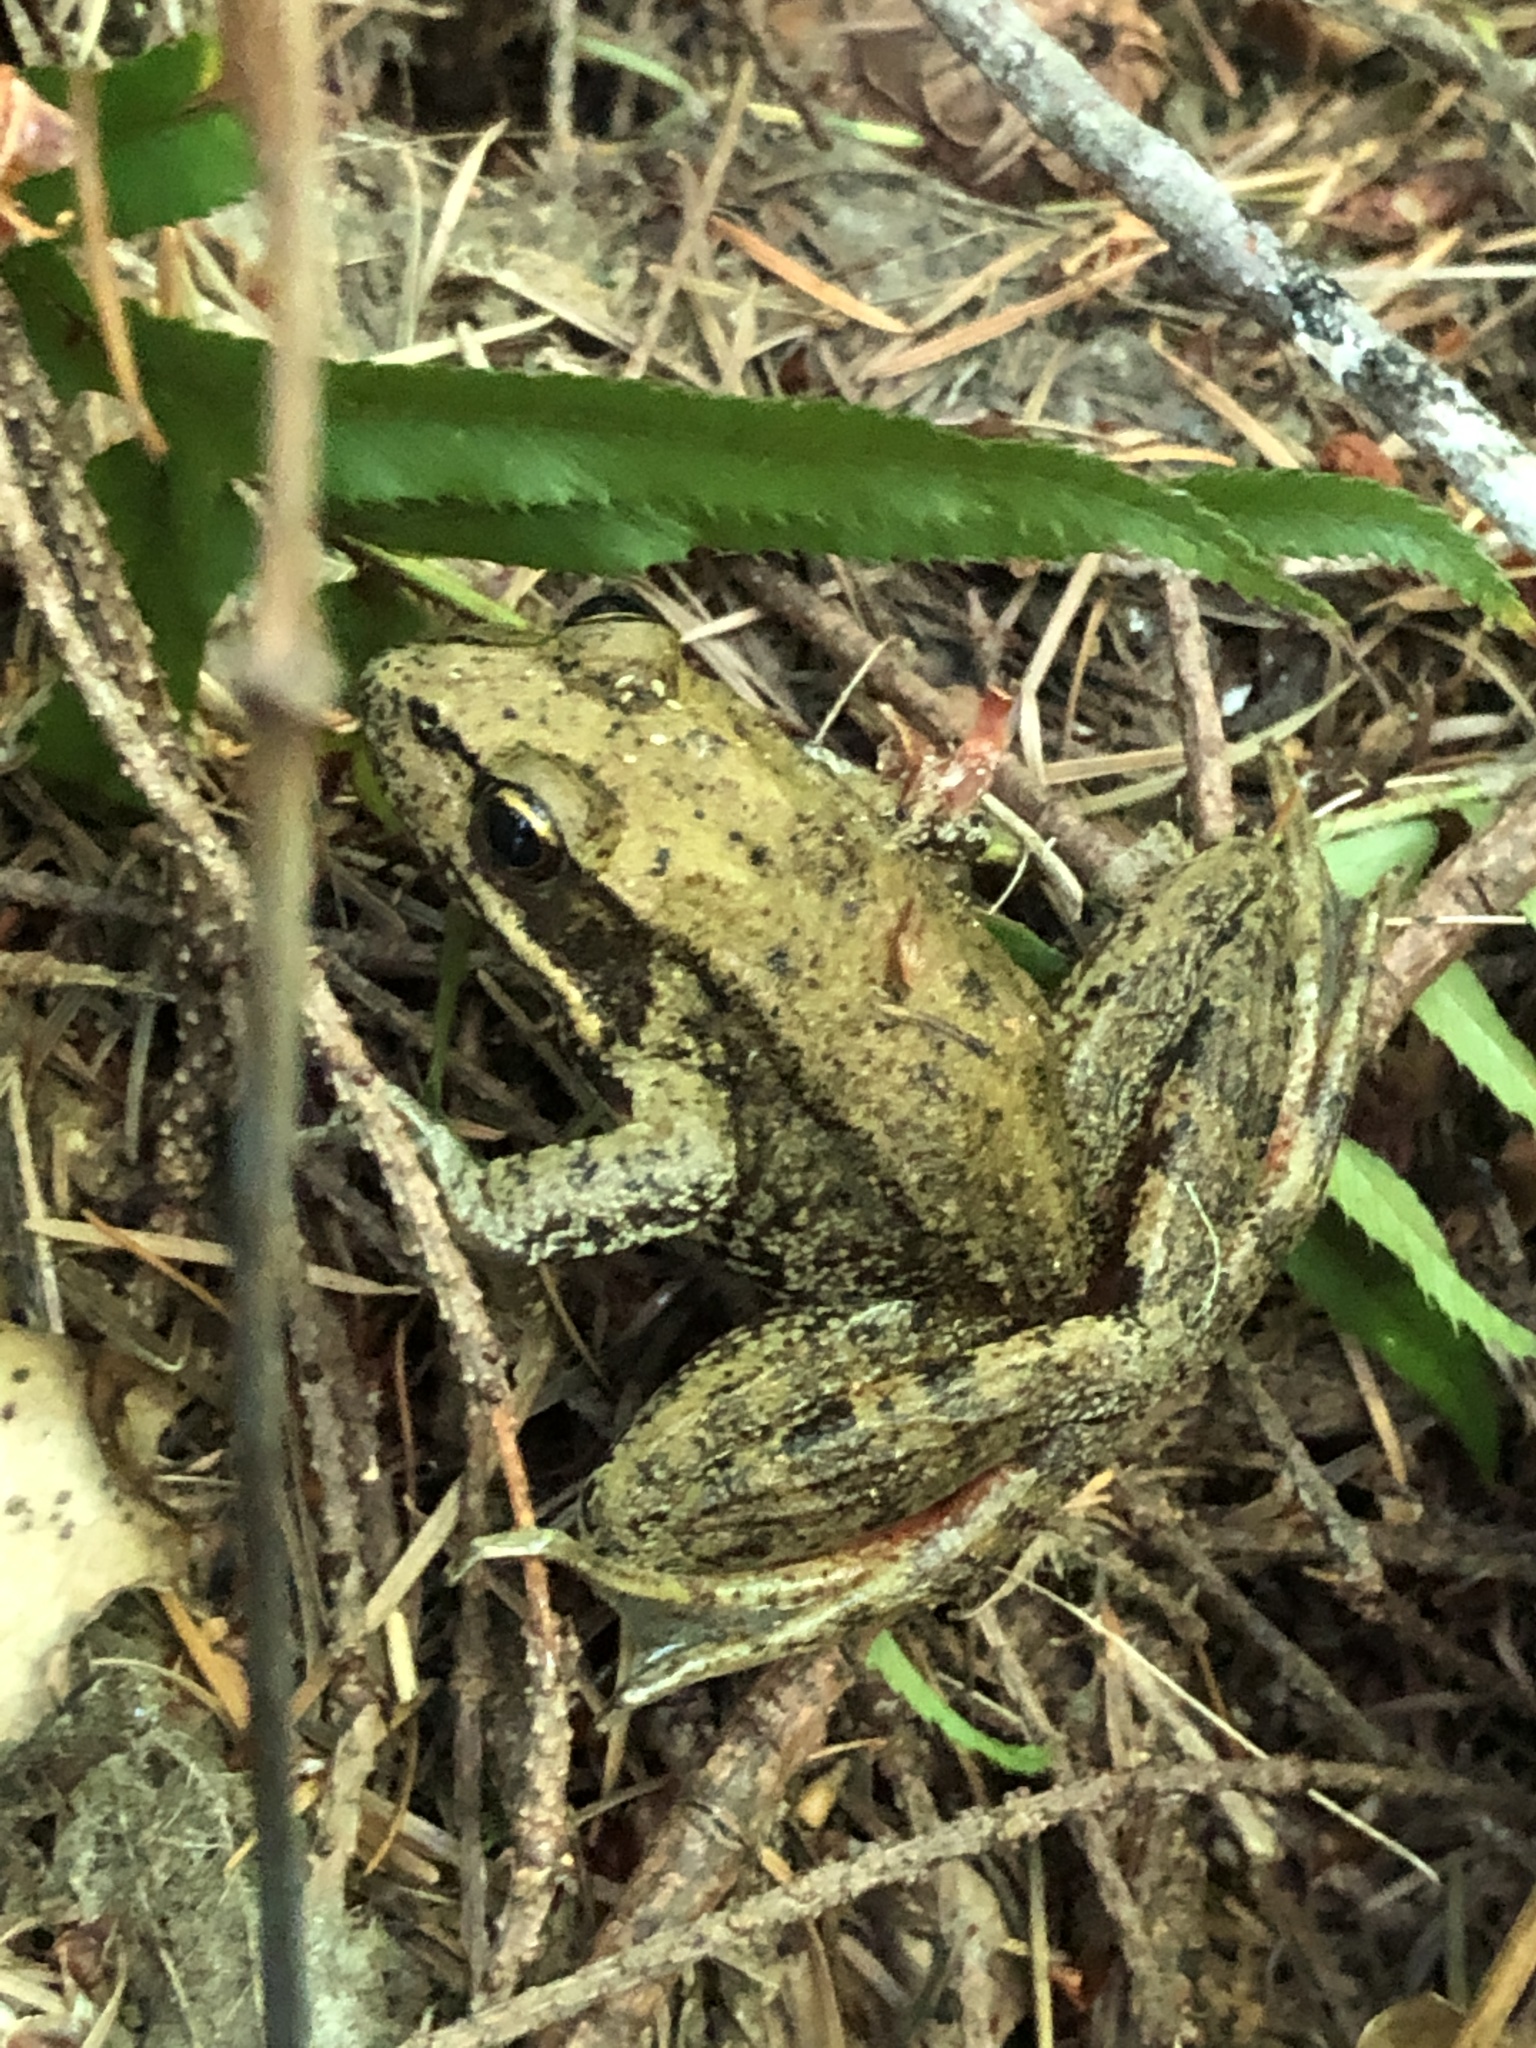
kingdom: Animalia
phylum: Chordata
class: Amphibia
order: Anura
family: Ranidae
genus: Rana
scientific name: Rana aurora
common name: Red-legged frog
